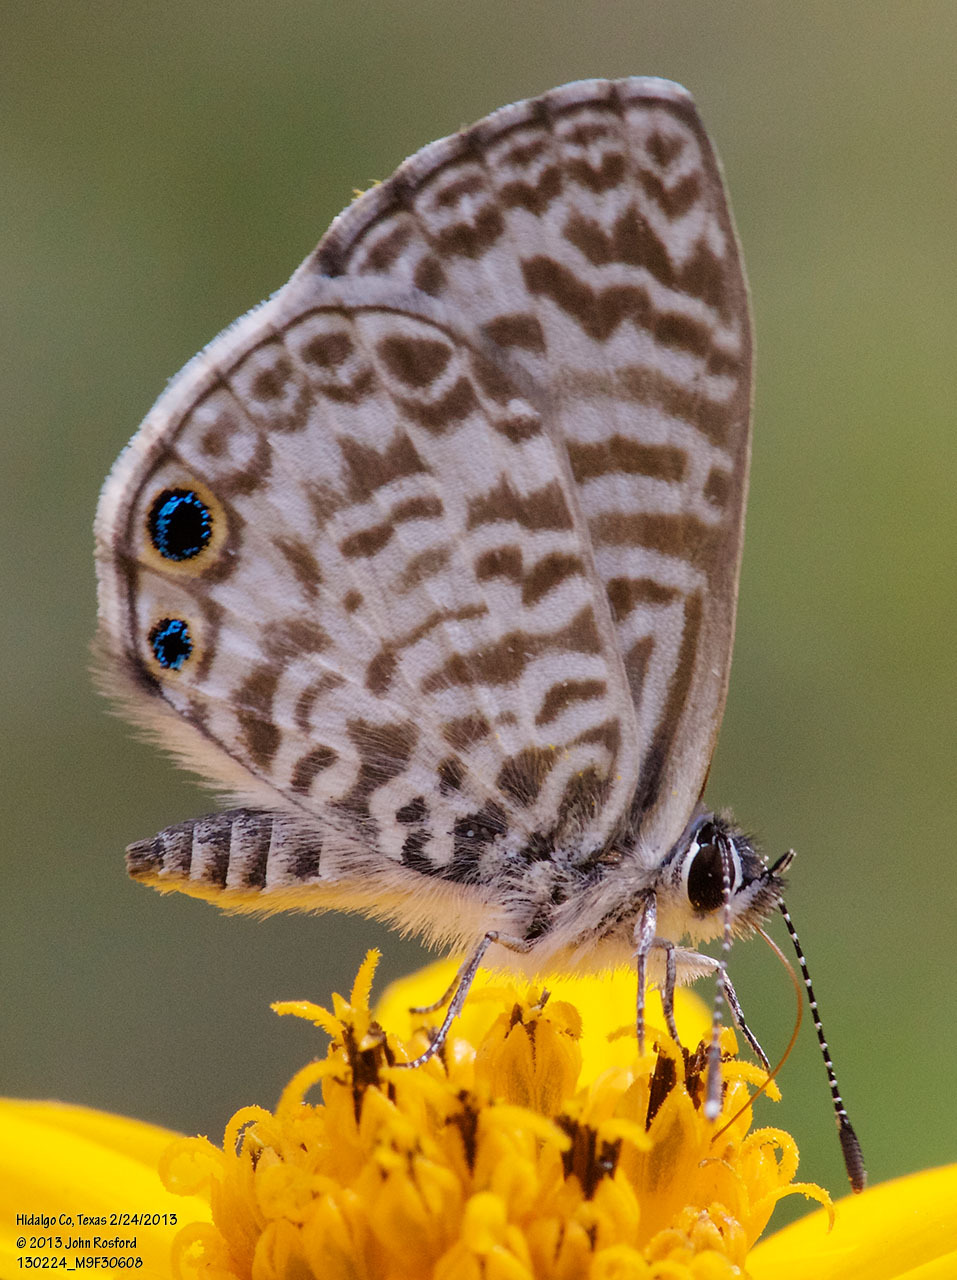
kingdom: Animalia
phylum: Arthropoda
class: Insecta
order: Lepidoptera
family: Lycaenidae
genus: Leptotes
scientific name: Leptotes cassius
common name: Cassius blue
